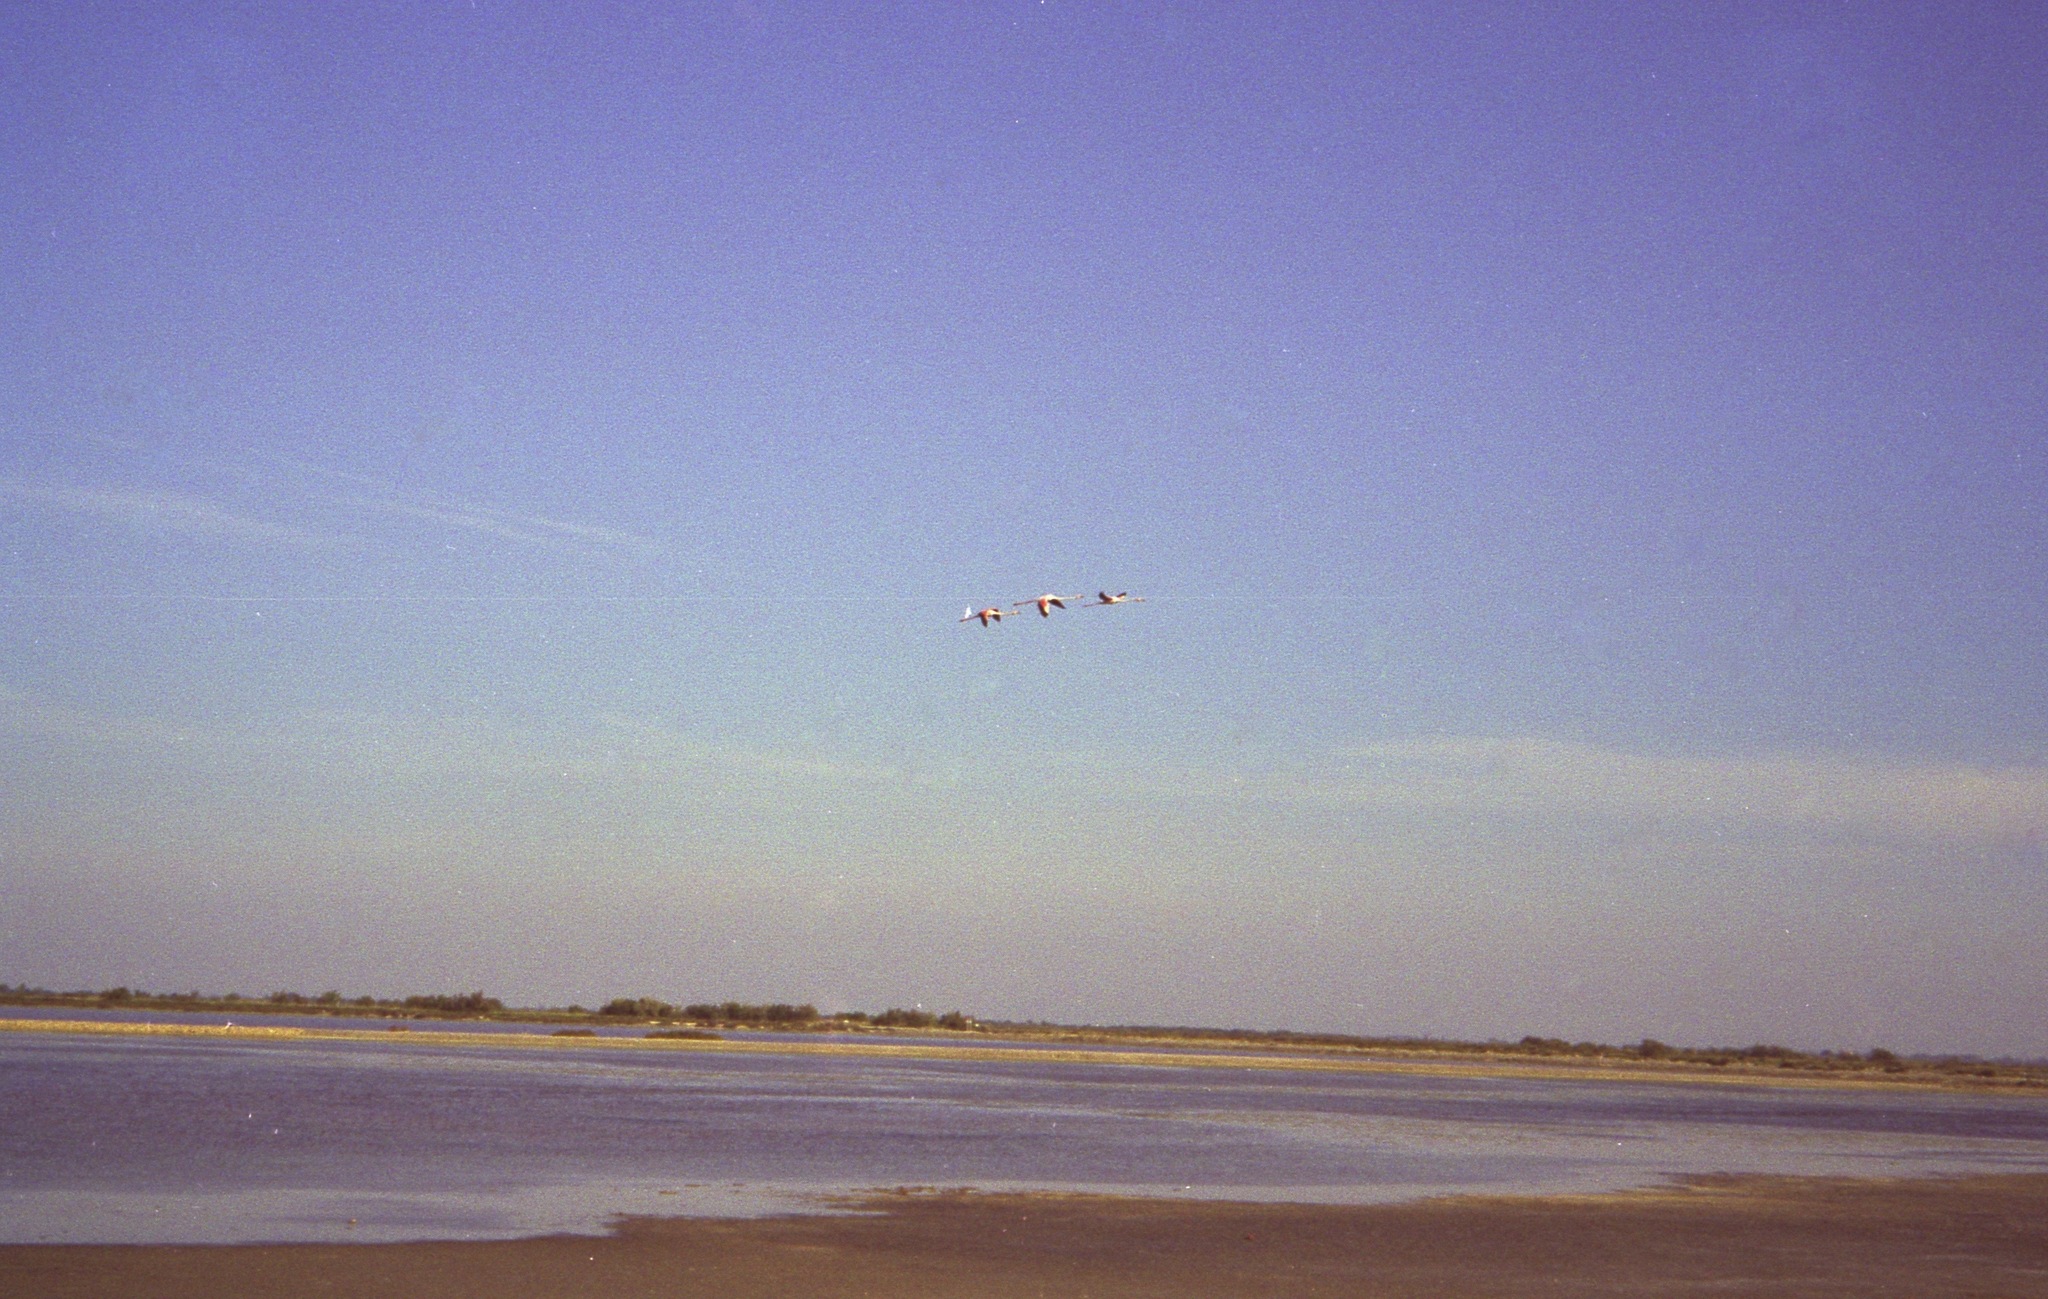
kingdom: Animalia
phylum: Chordata
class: Aves
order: Phoenicopteriformes
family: Phoenicopteridae
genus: Phoenicopterus
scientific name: Phoenicopterus roseus
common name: Greater flamingo
